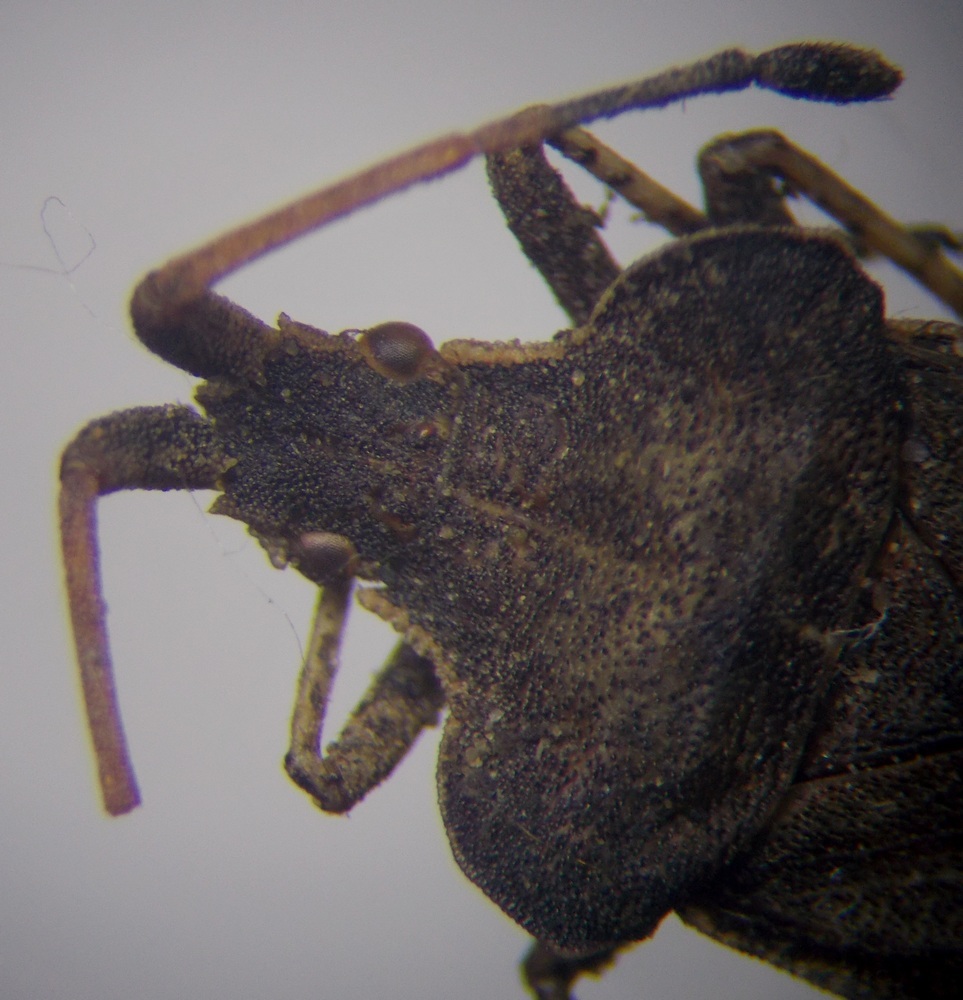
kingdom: Animalia
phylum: Arthropoda
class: Insecta
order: Hemiptera
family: Coreidae
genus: Enoplops
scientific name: Enoplops scapha
